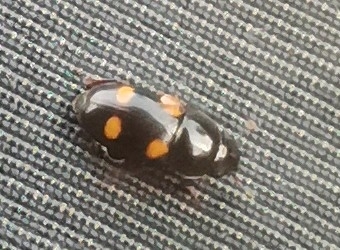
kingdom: Animalia
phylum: Arthropoda
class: Insecta
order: Coleoptera
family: Nitidulidae
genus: Glischrochilus
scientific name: Glischrochilus hortensis
